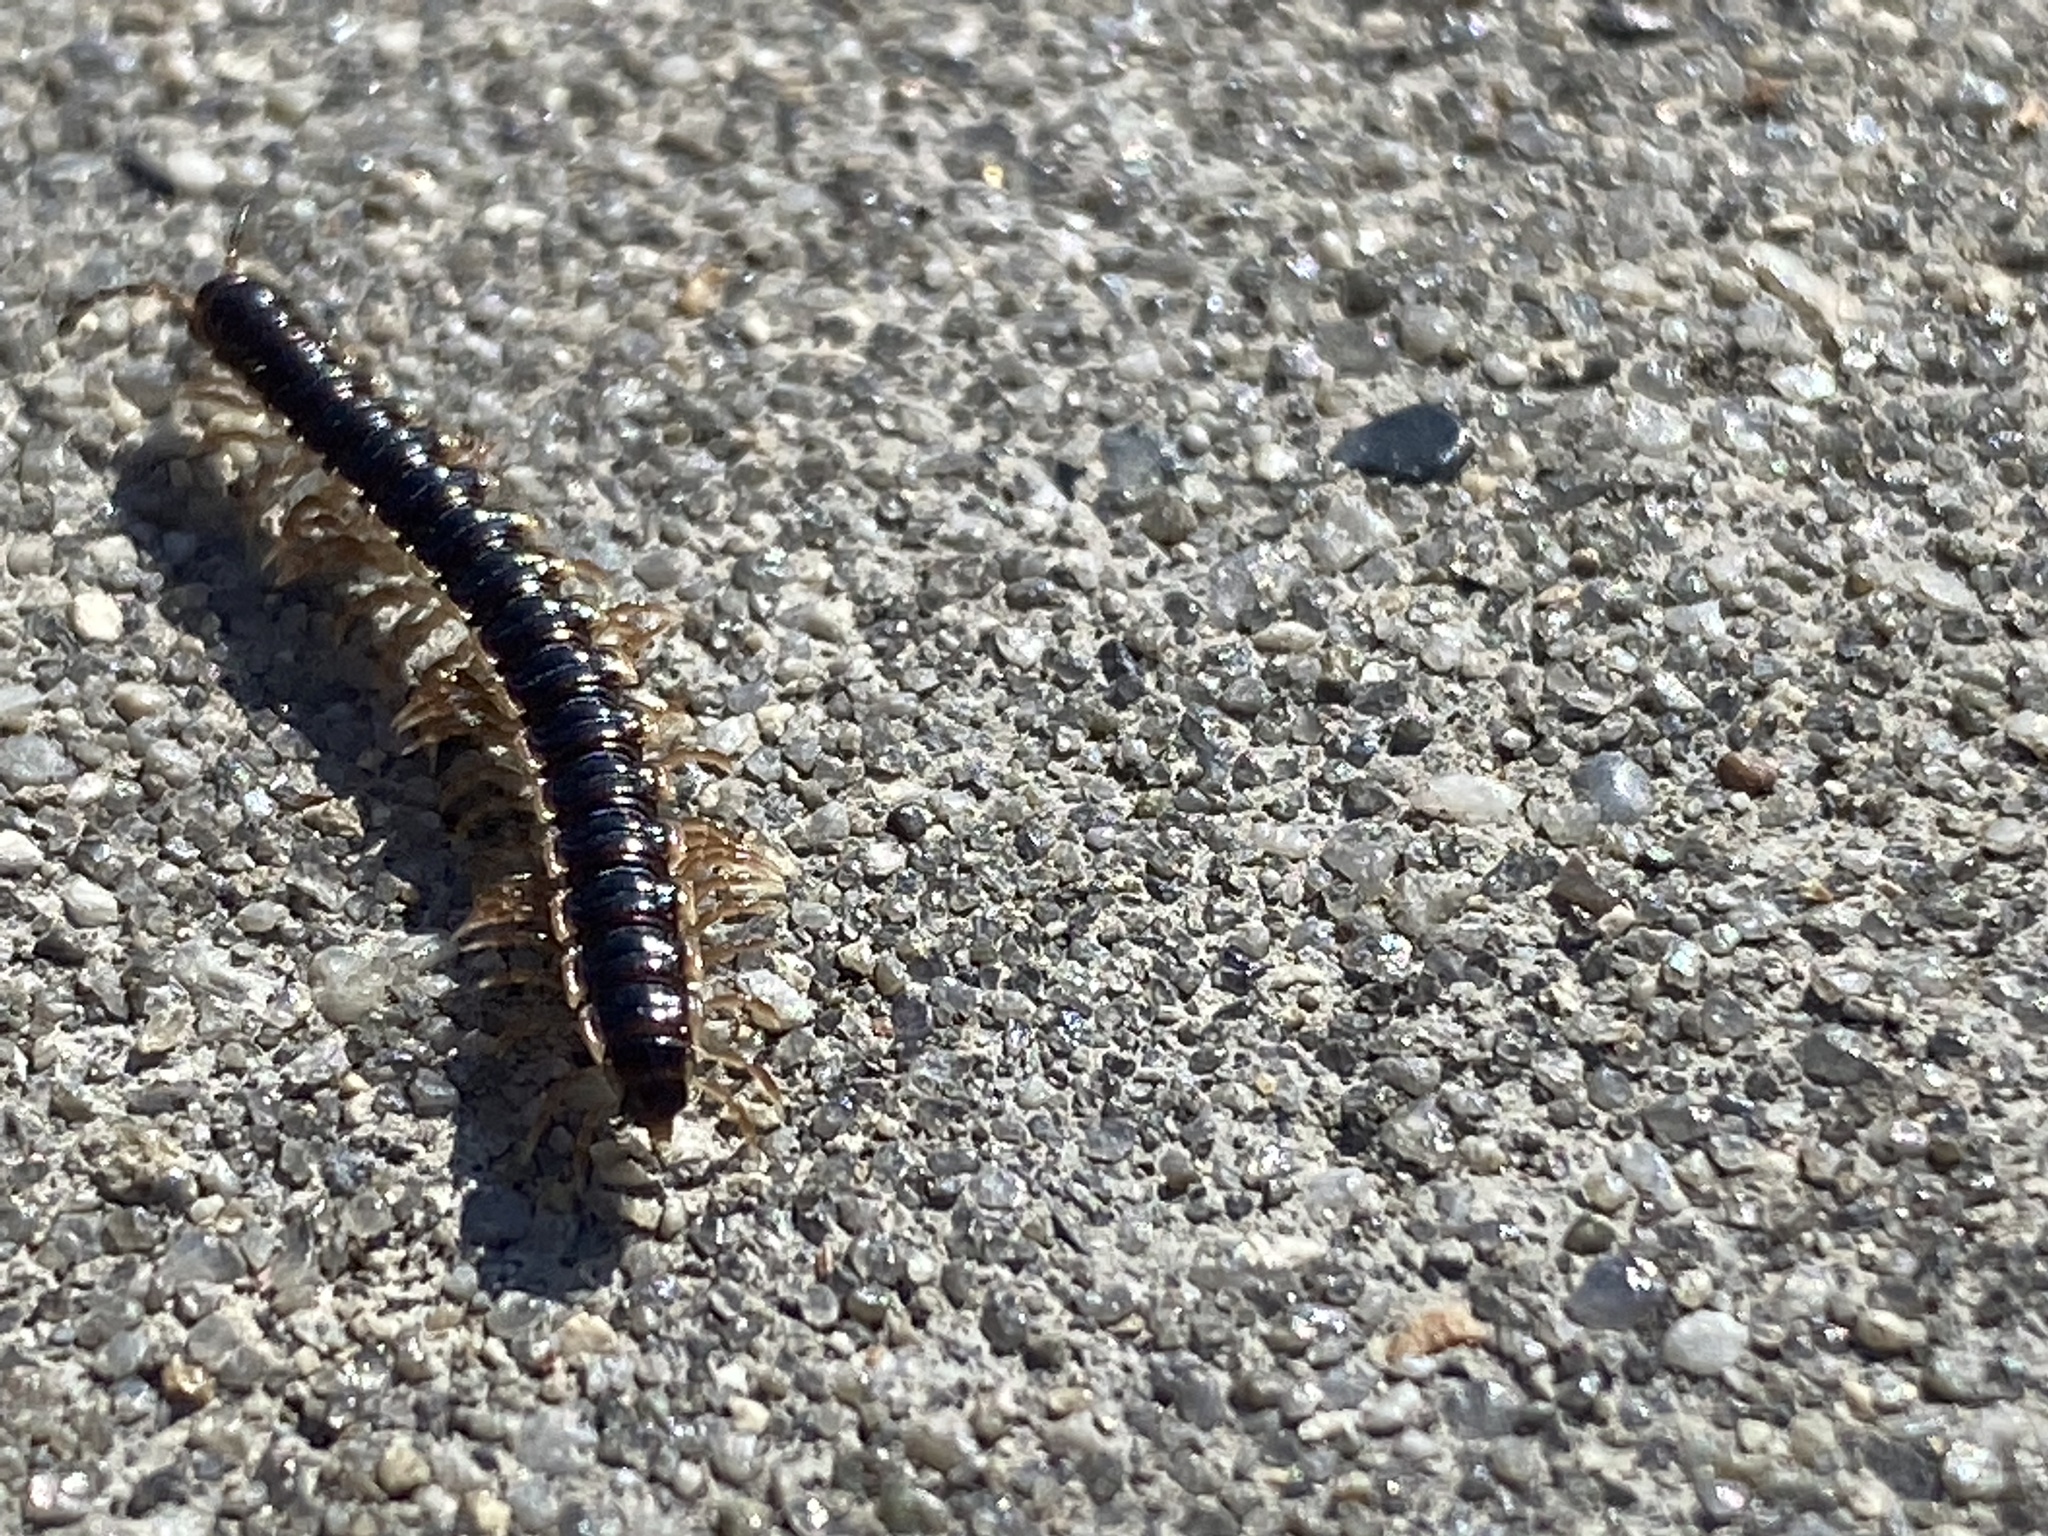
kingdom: Animalia
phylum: Arthropoda
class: Diplopoda
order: Polydesmida
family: Paradoxosomatidae
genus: Oxidus
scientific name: Oxidus gracilis
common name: Greenhouse millipede
